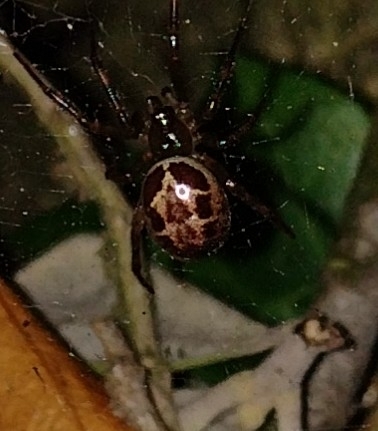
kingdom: Animalia
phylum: Arthropoda
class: Arachnida
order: Araneae
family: Theridiidae
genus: Steatoda
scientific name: Steatoda nobilis
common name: Cobweb weaver
